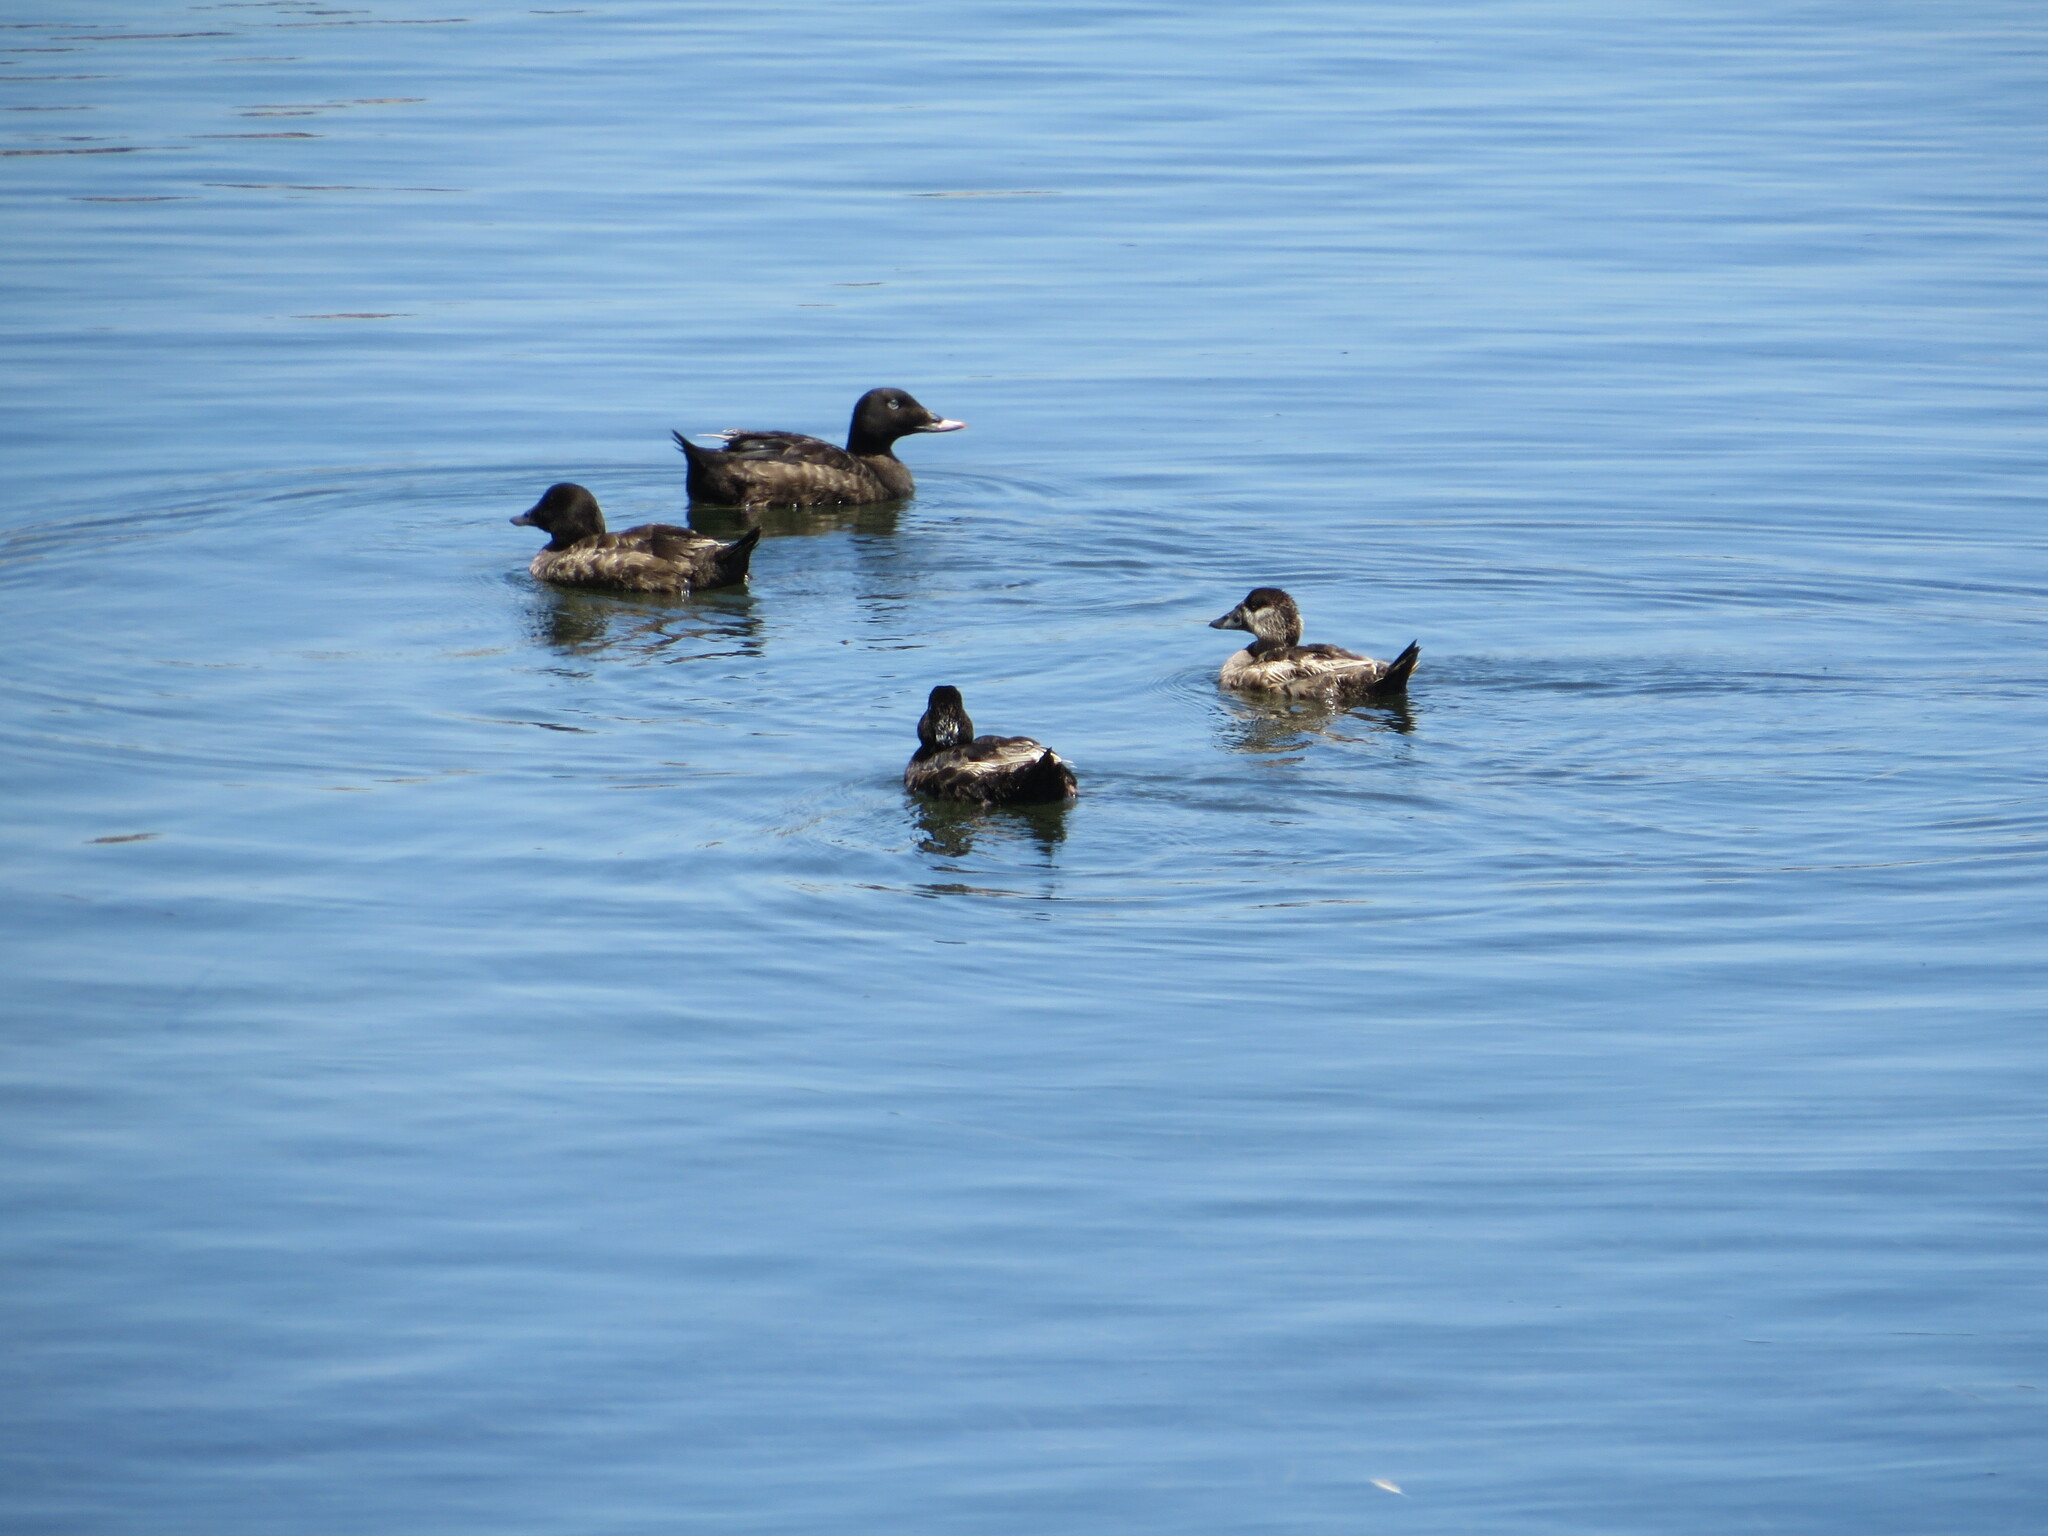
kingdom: Animalia
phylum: Chordata
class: Aves
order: Anseriformes
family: Anatidae
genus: Melanitta
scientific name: Melanitta perspicillata
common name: Surf scoter
